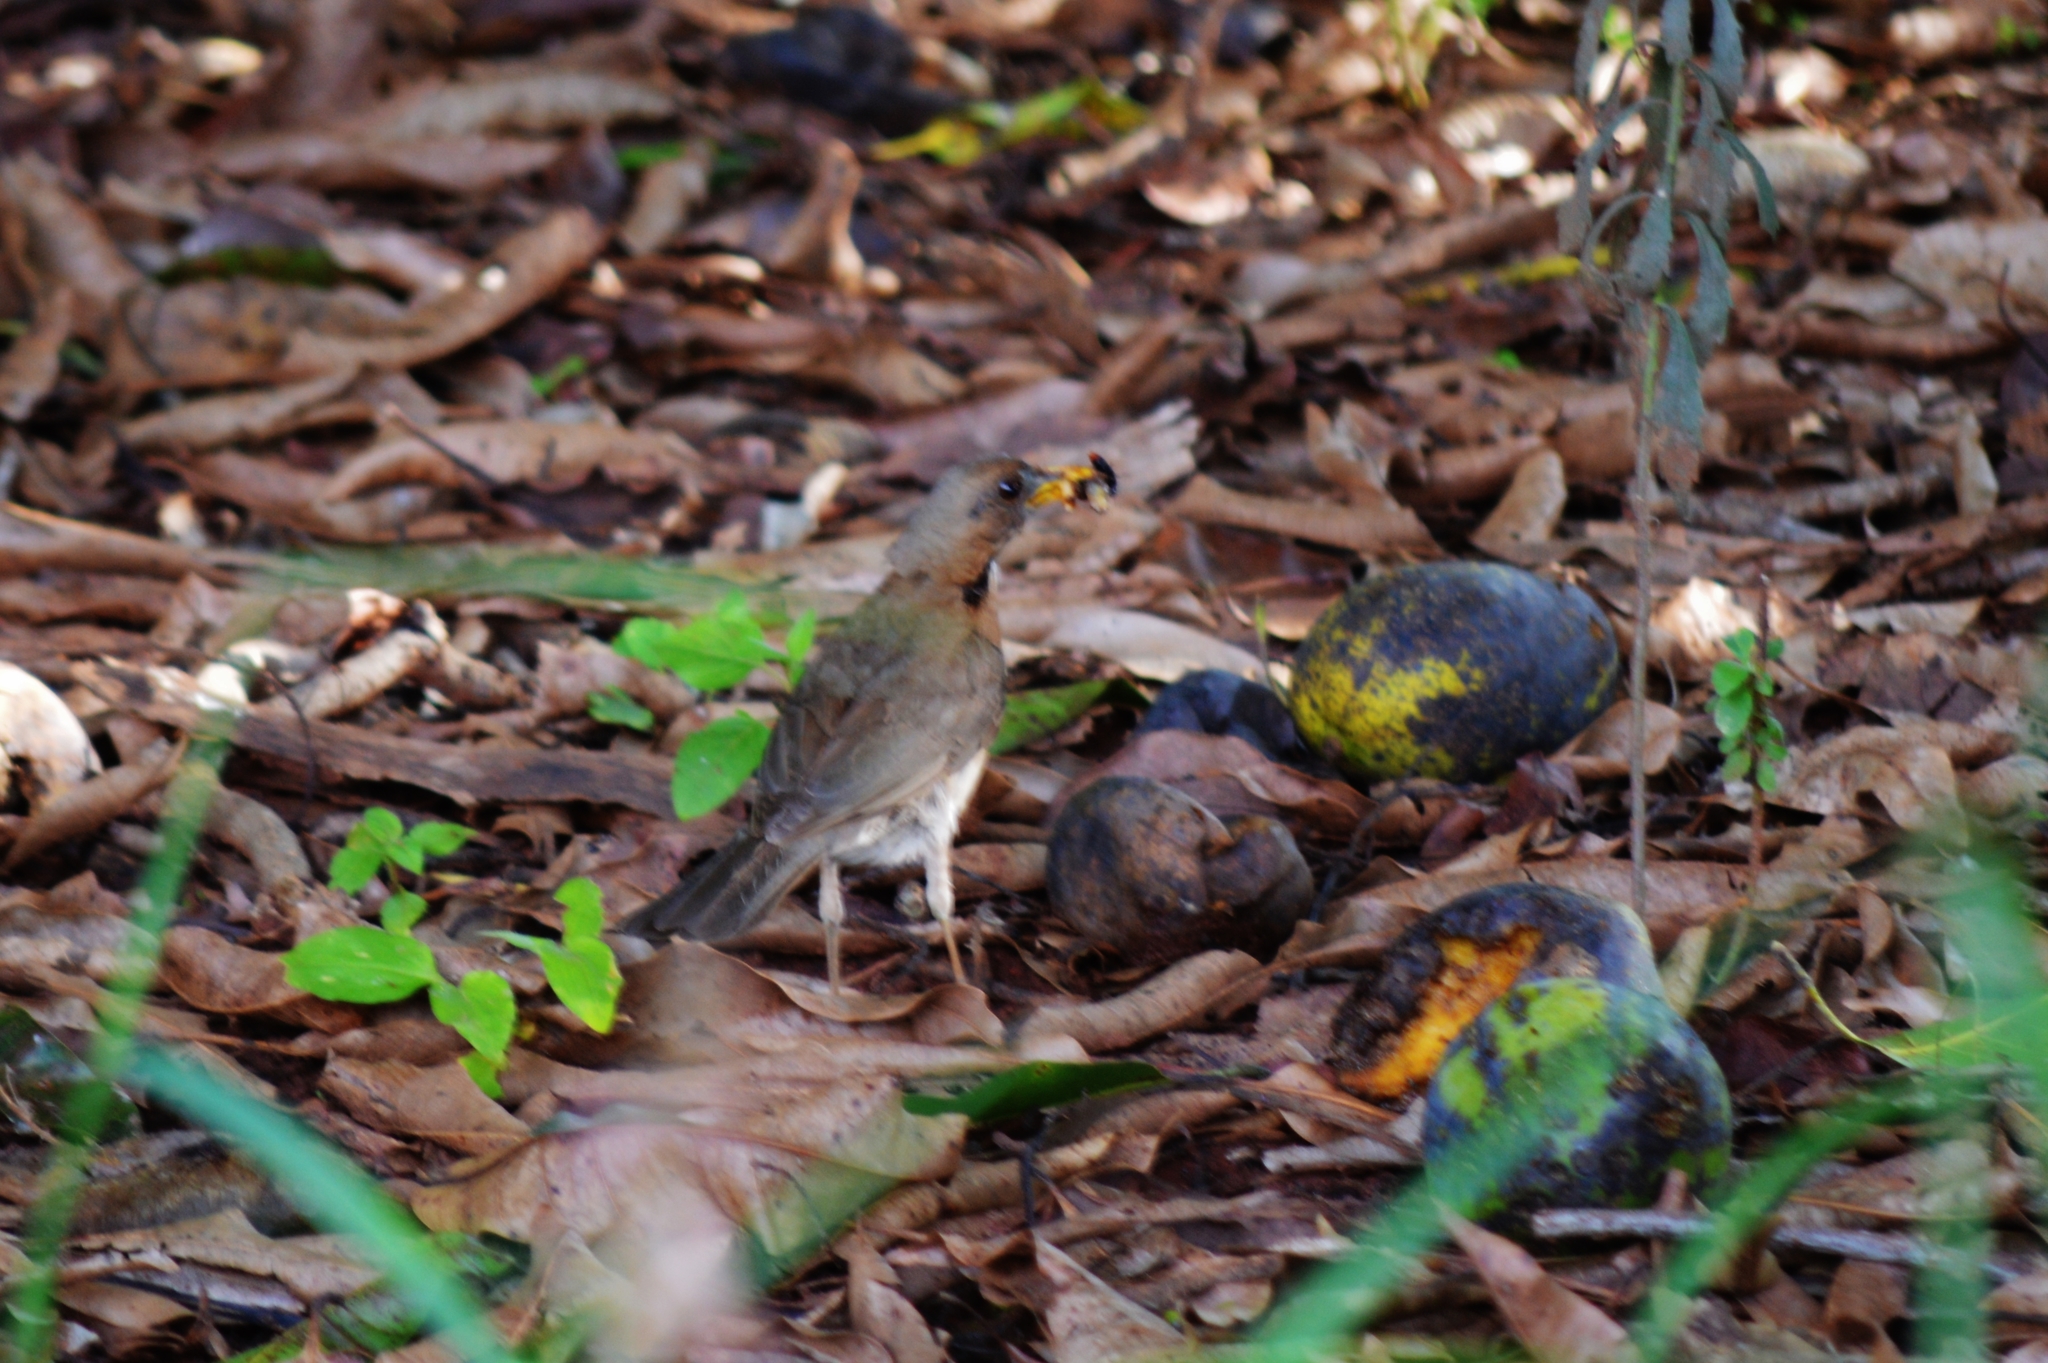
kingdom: Animalia
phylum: Chordata
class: Aves
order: Passeriformes
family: Turdidae
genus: Turdus
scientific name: Turdus amaurochalinus
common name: Creamy-bellied thrush
